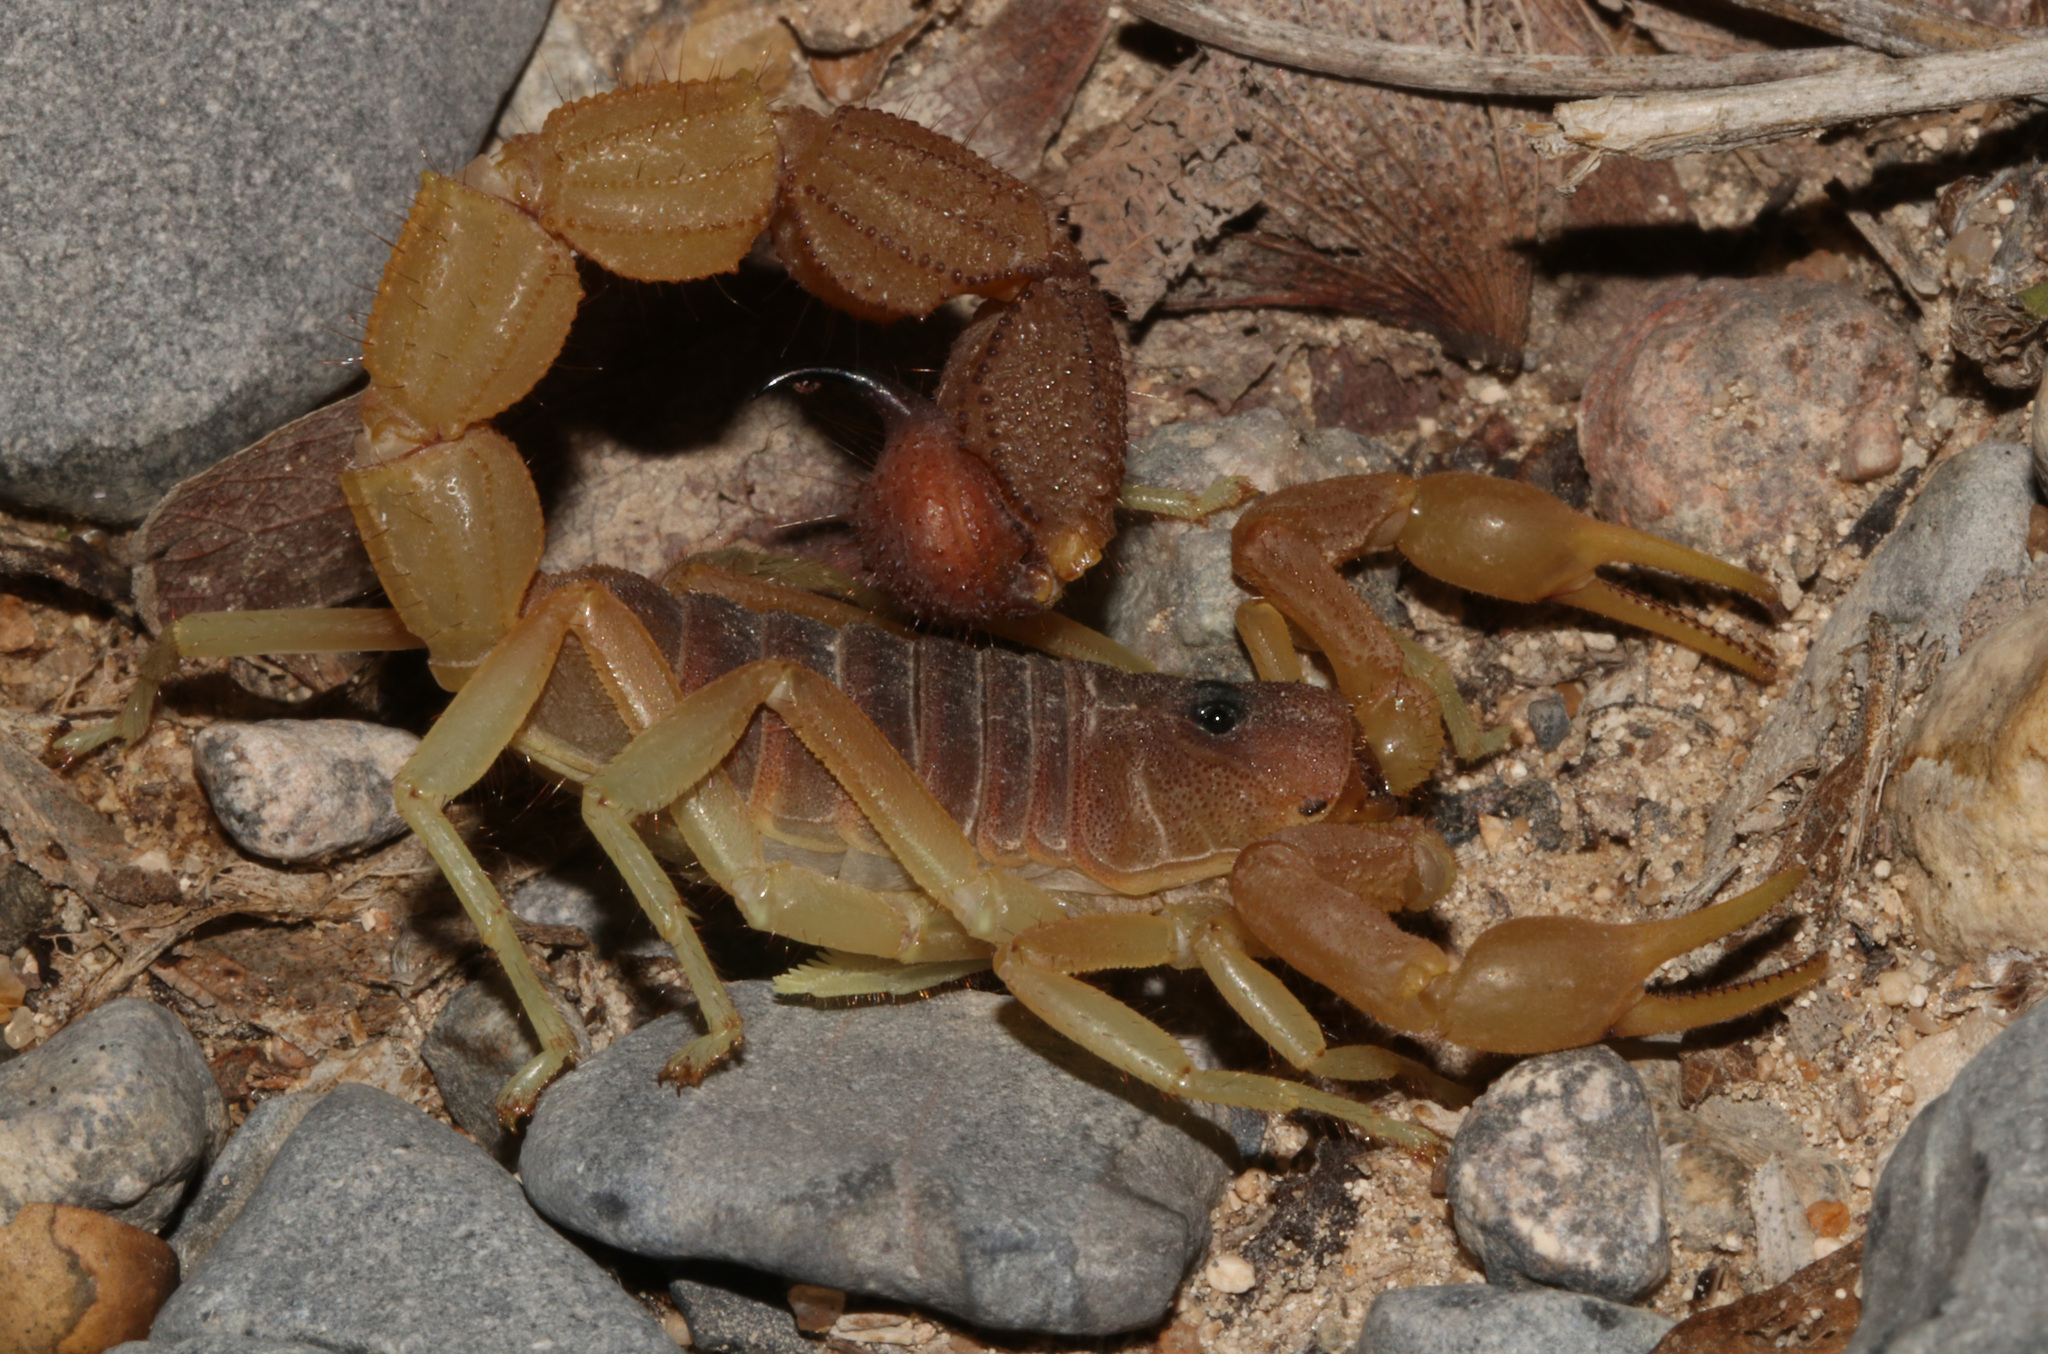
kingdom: Animalia
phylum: Arthropoda
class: Arachnida
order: Scorpiones
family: Buthidae
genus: Parabuthus
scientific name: Parabuthus kraepelini
